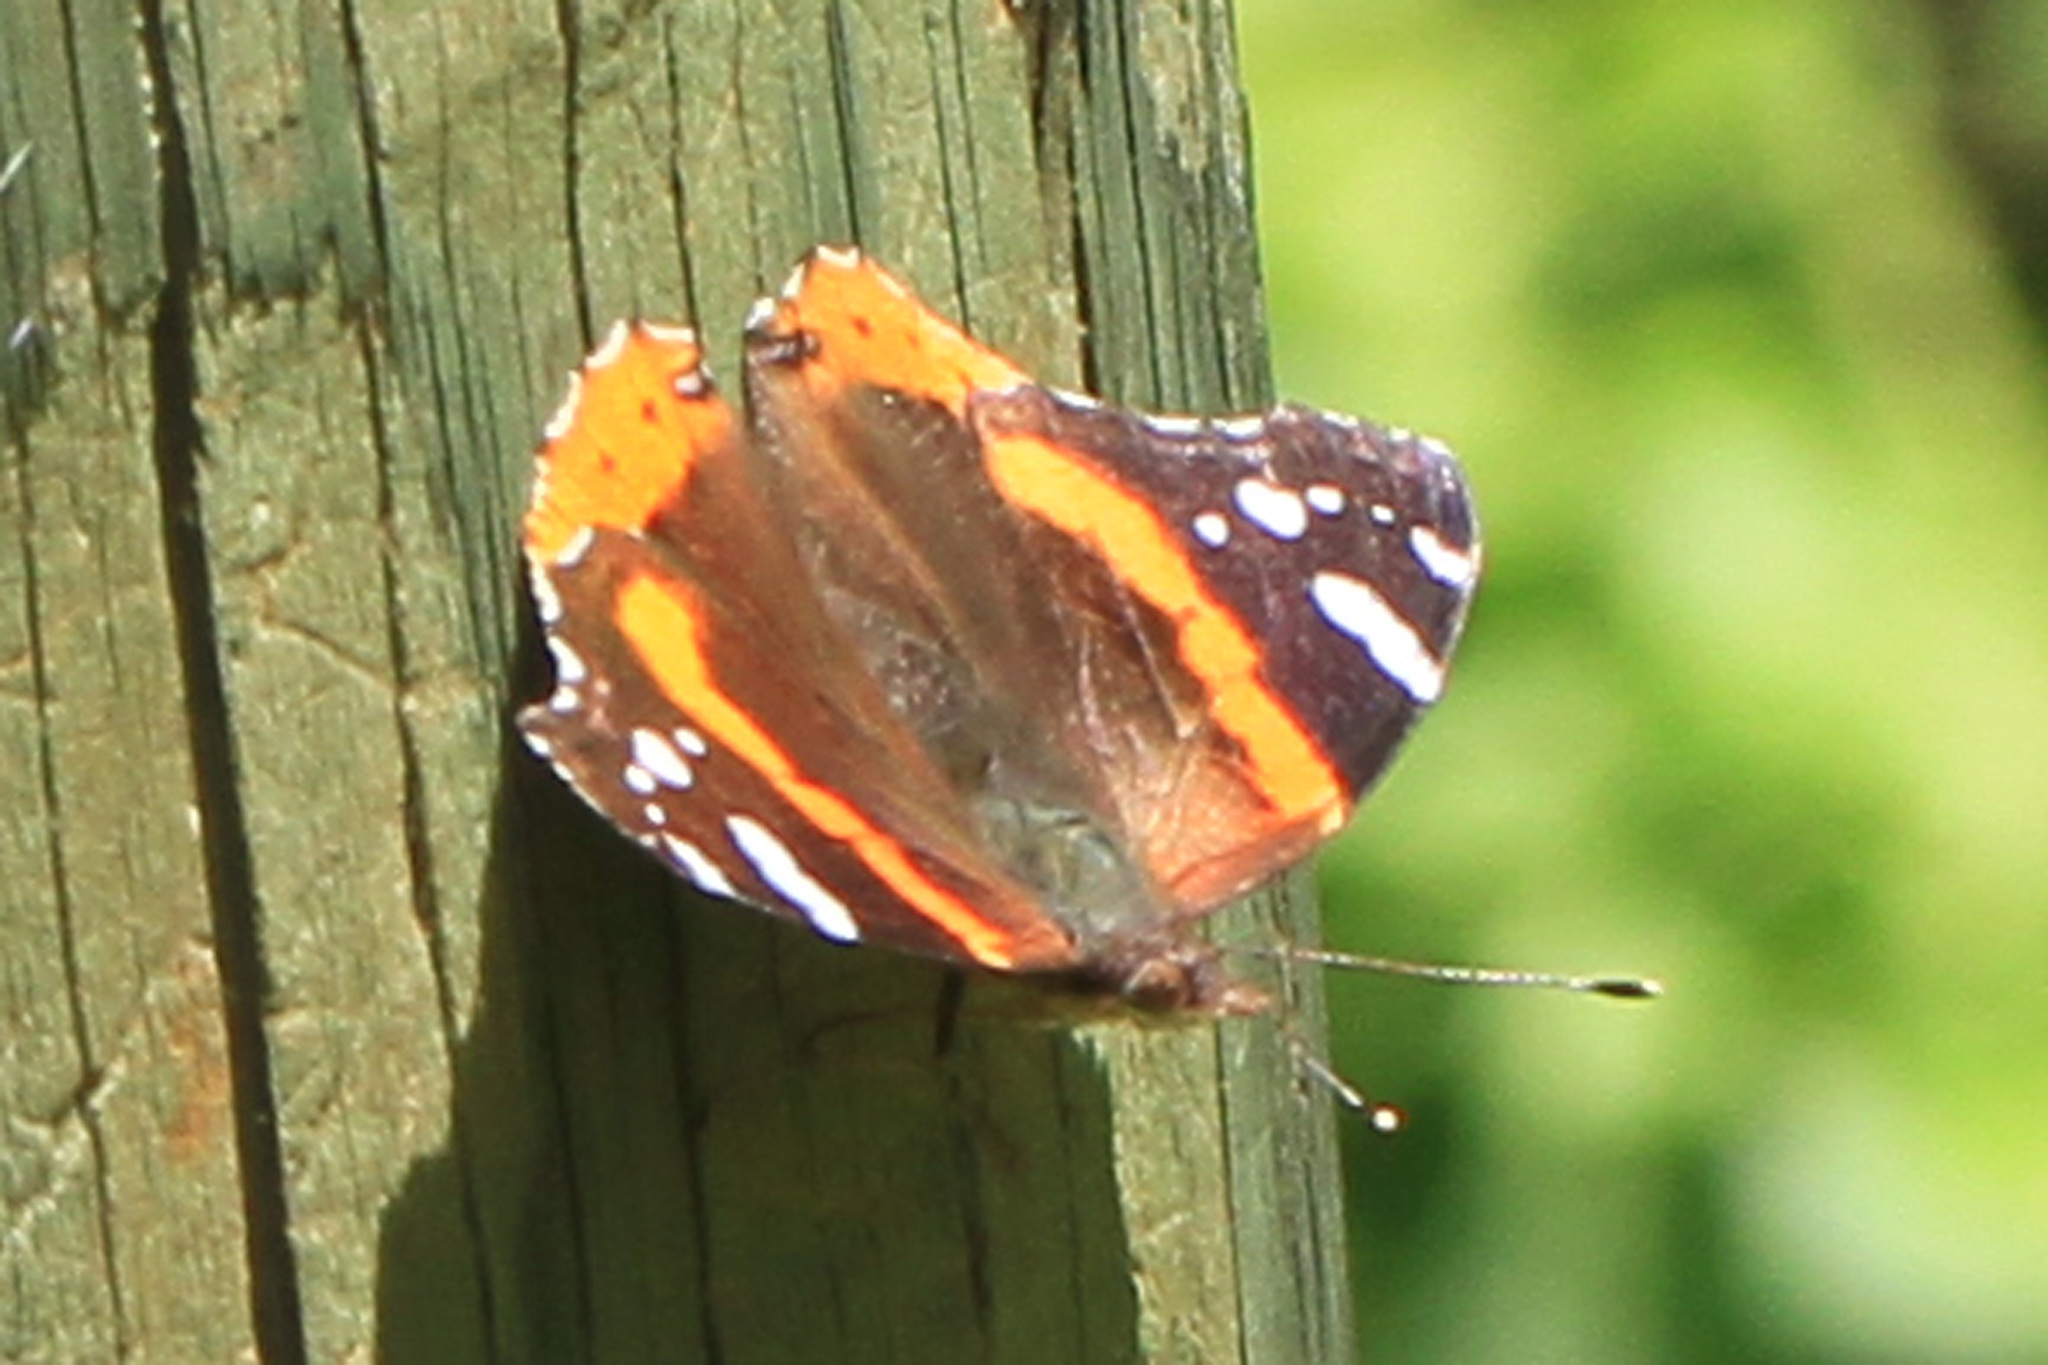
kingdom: Animalia
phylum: Arthropoda
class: Insecta
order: Lepidoptera
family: Nymphalidae
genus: Vanessa
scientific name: Vanessa atalanta
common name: Red admiral
